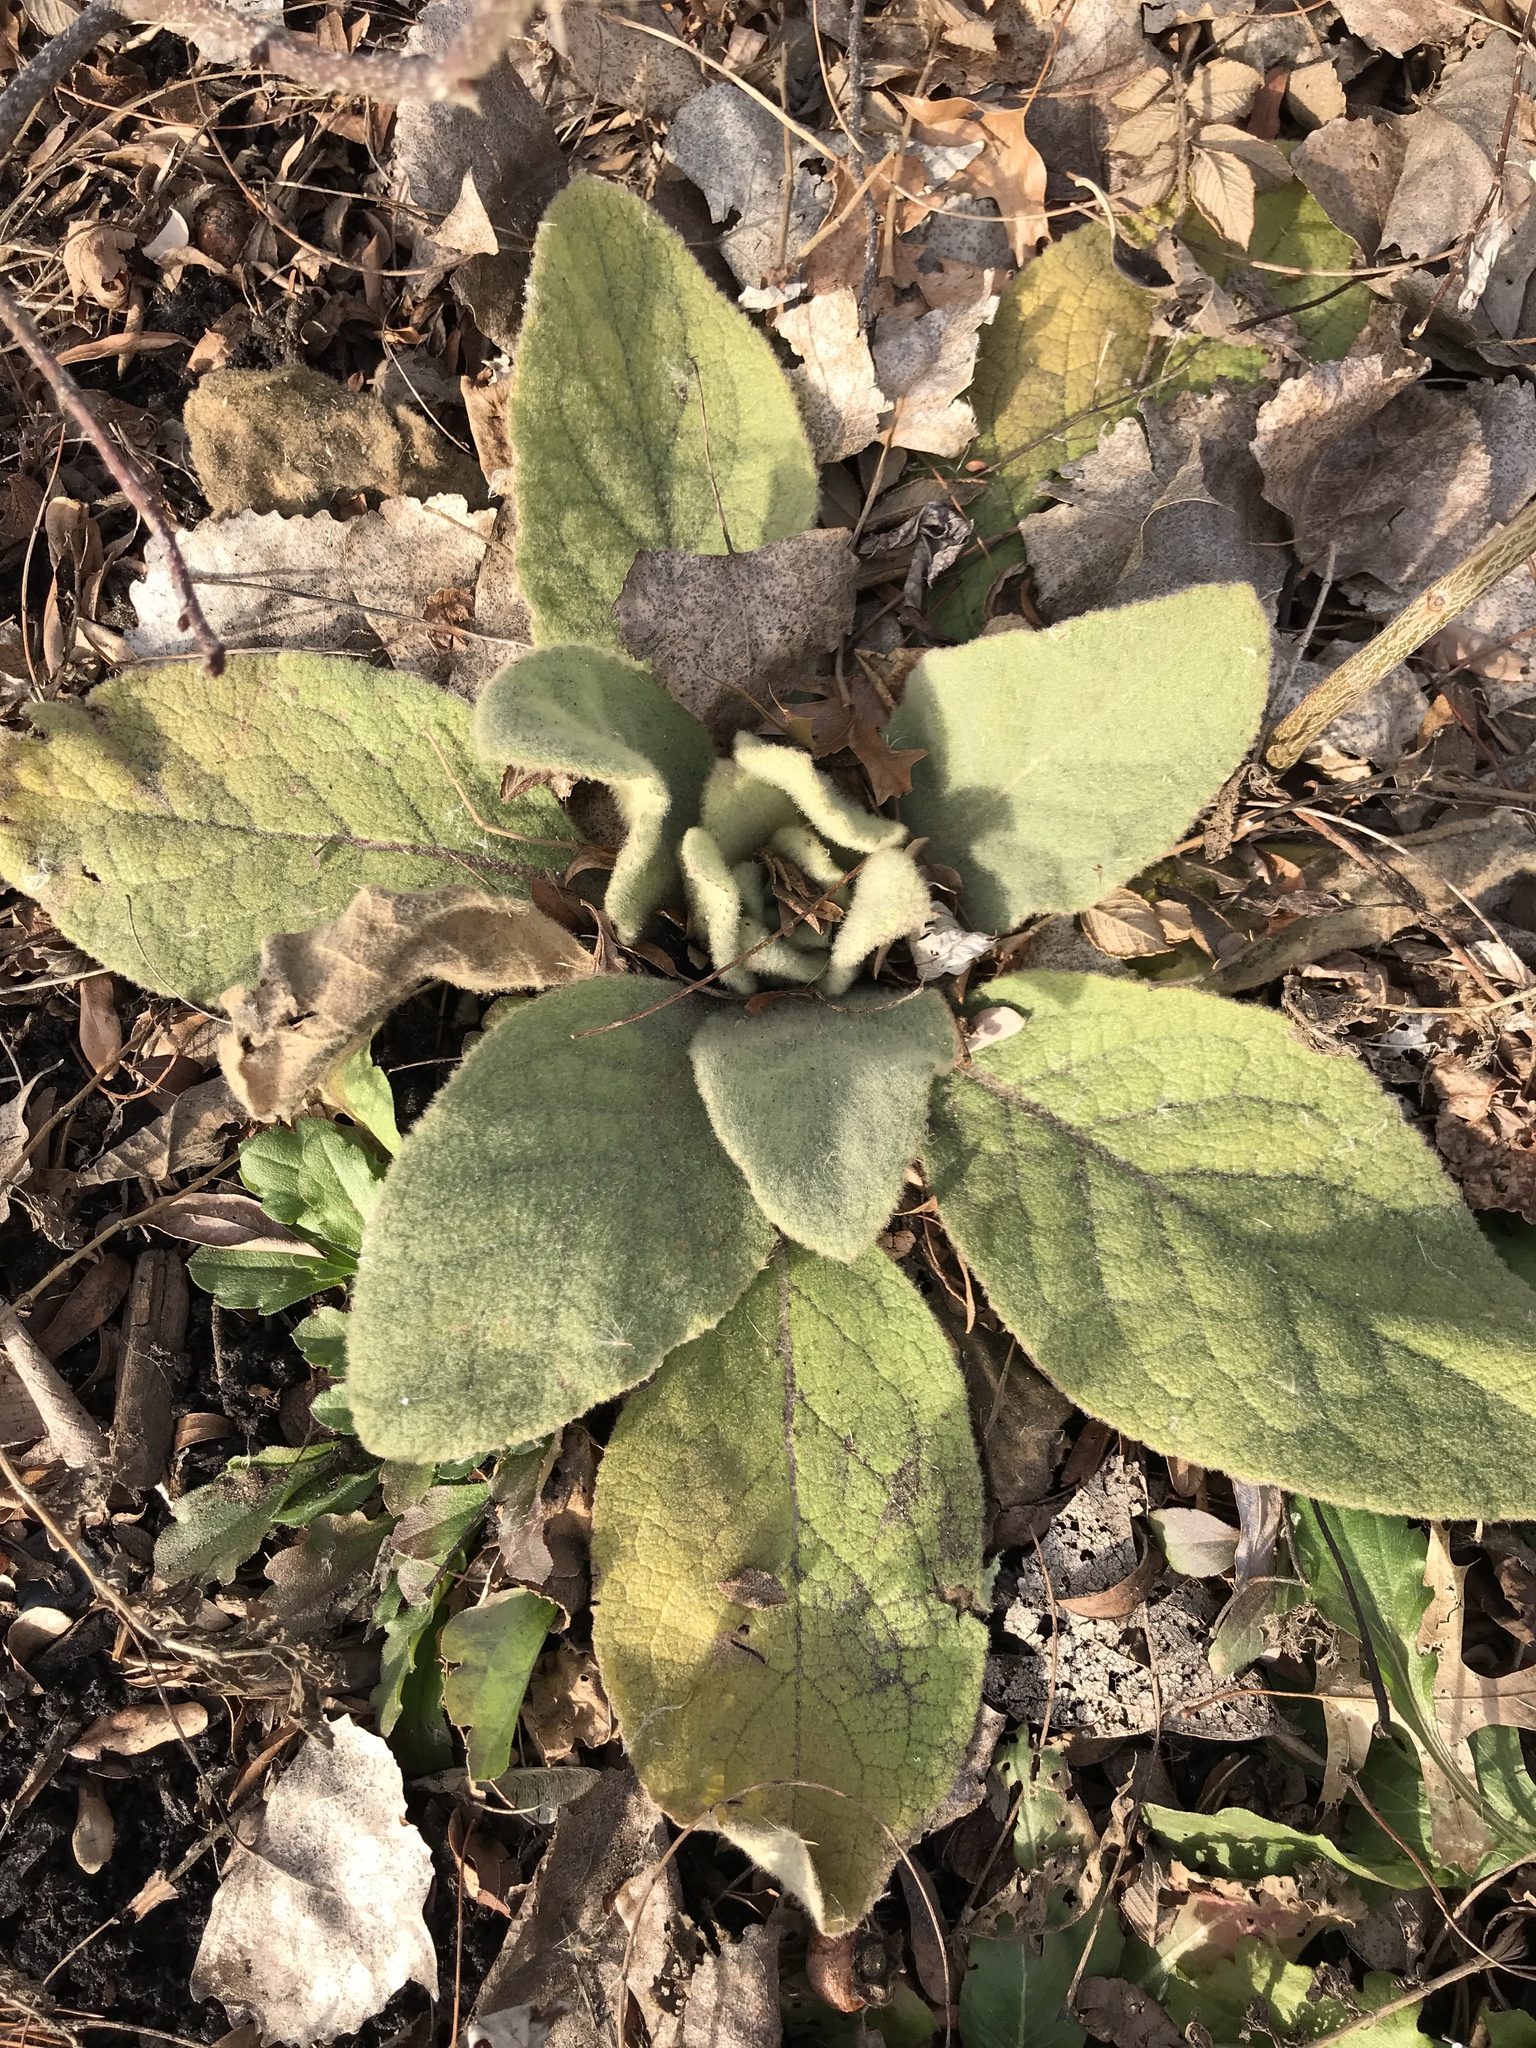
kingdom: Plantae
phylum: Tracheophyta
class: Magnoliopsida
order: Lamiales
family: Scrophulariaceae
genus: Verbascum
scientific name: Verbascum thapsus
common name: Common mullein
